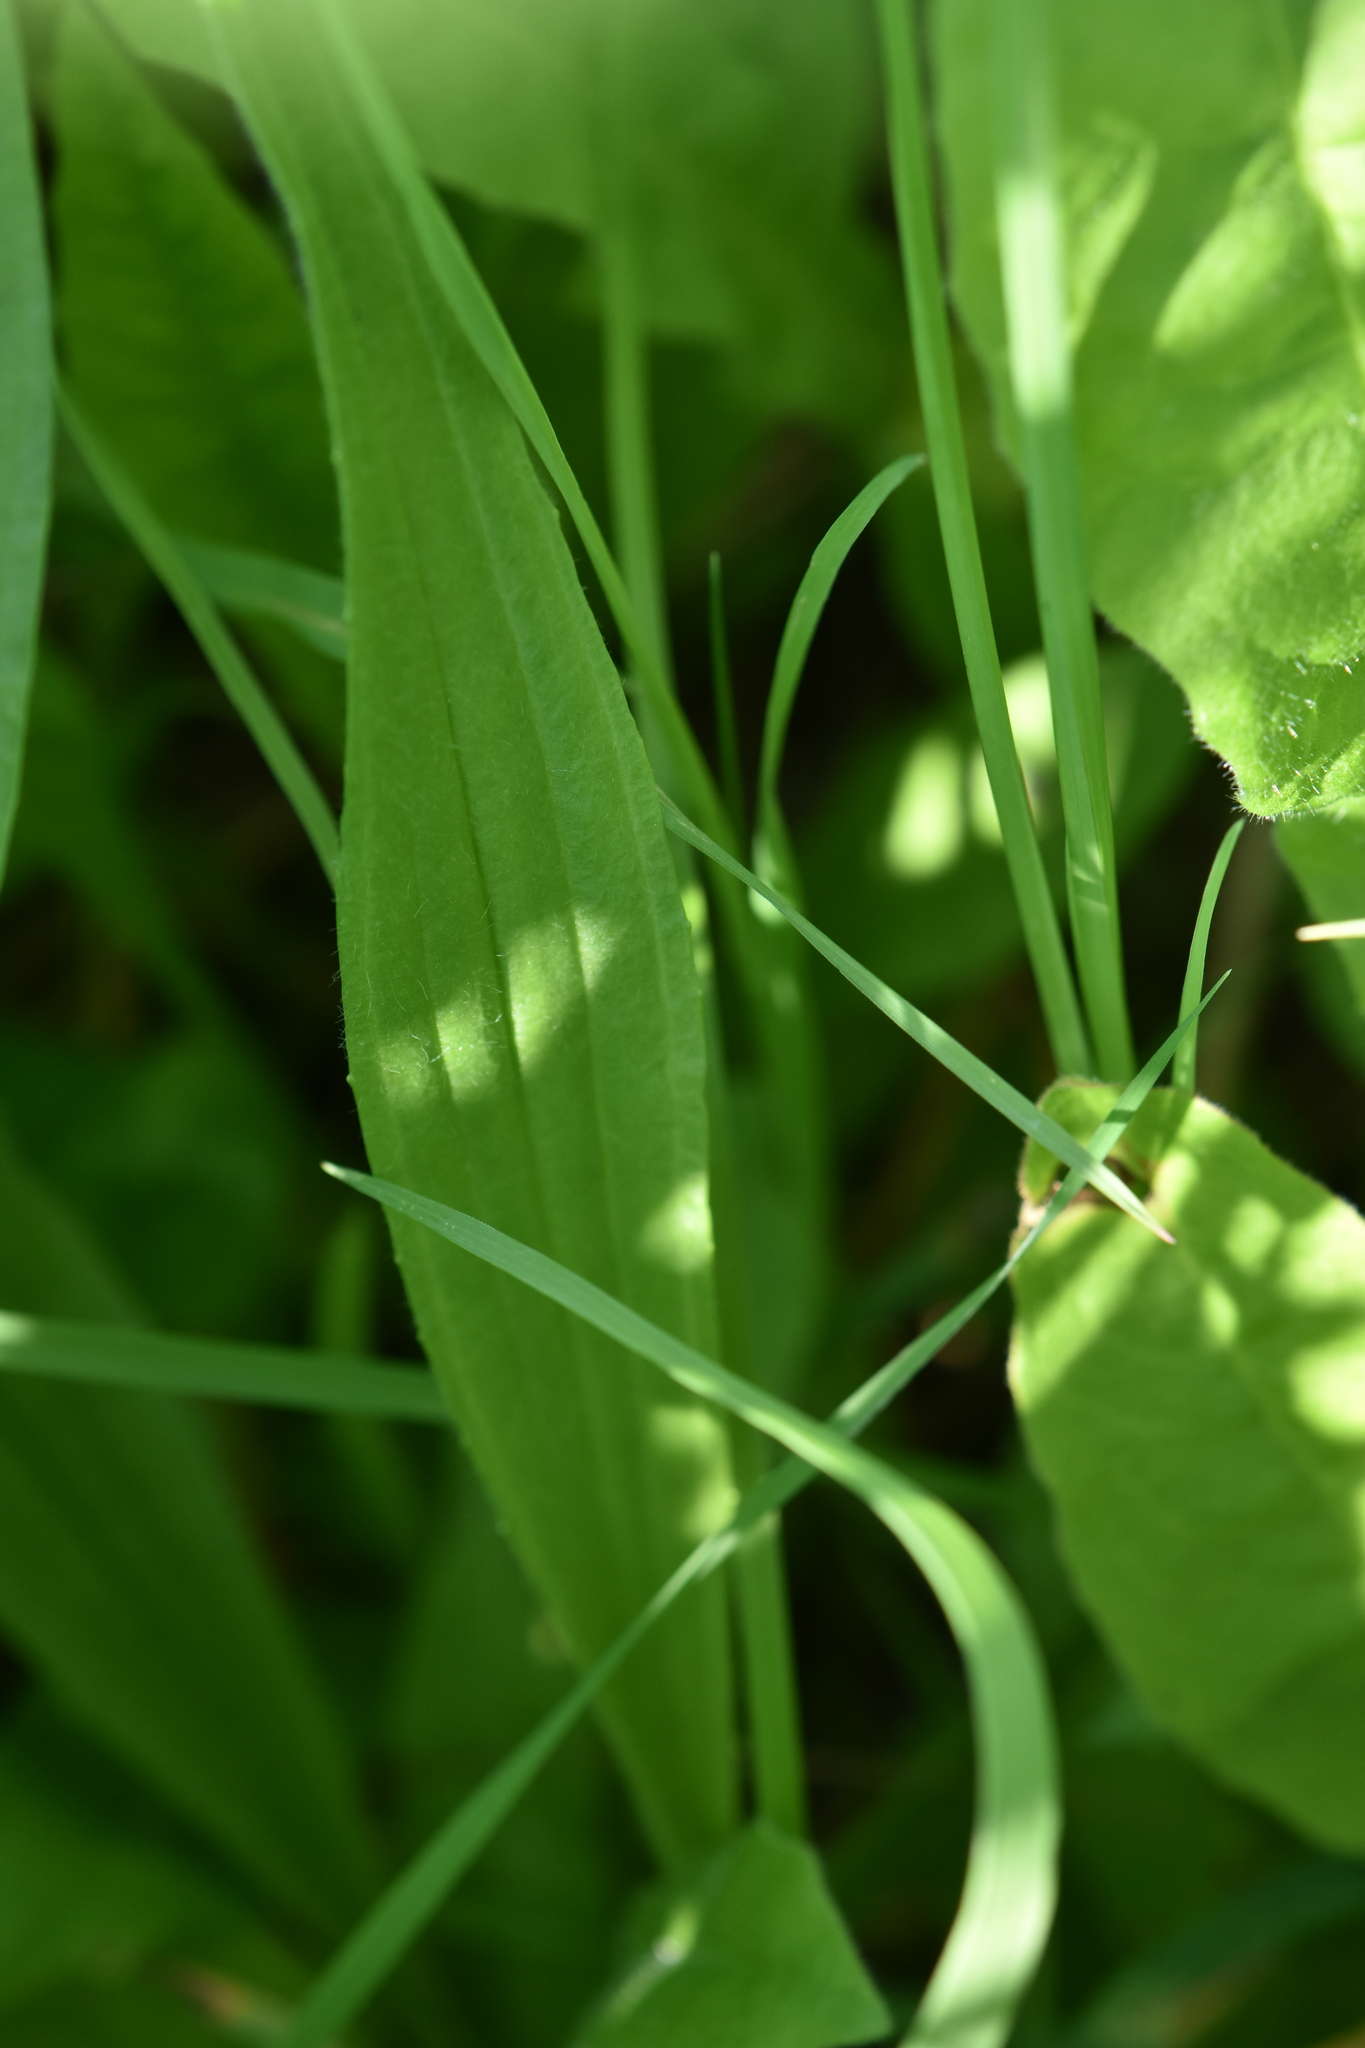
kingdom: Plantae
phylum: Tracheophyta
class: Magnoliopsida
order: Lamiales
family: Plantaginaceae
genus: Plantago
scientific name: Plantago lanceolata
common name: Ribwort plantain
